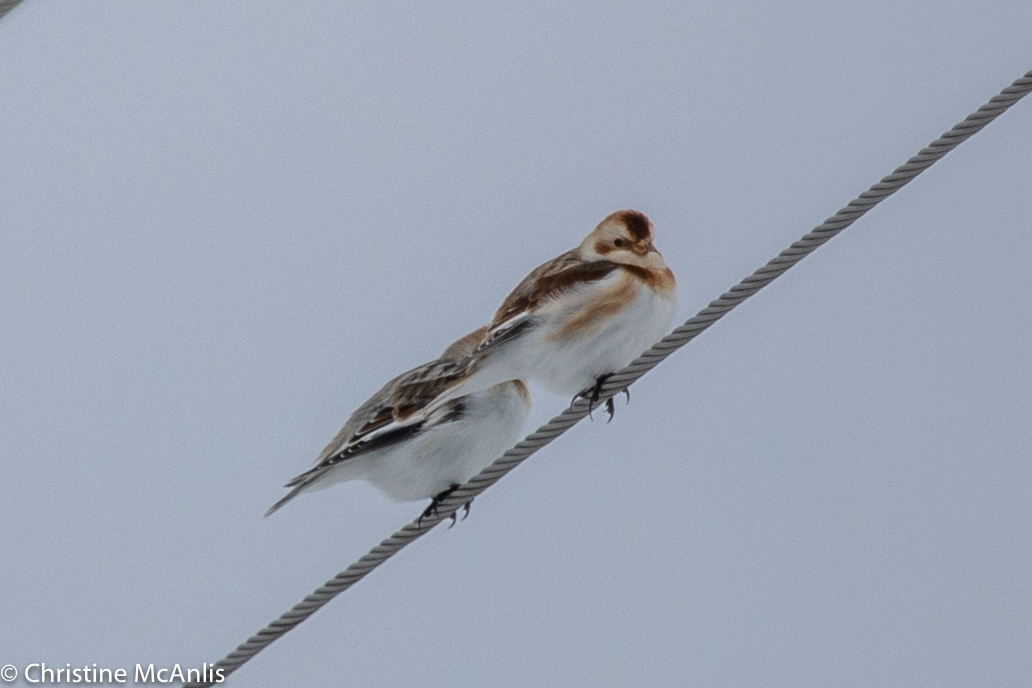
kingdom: Animalia
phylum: Chordata
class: Aves
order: Passeriformes
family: Calcariidae
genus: Plectrophenax
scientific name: Plectrophenax nivalis
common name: Snow bunting
